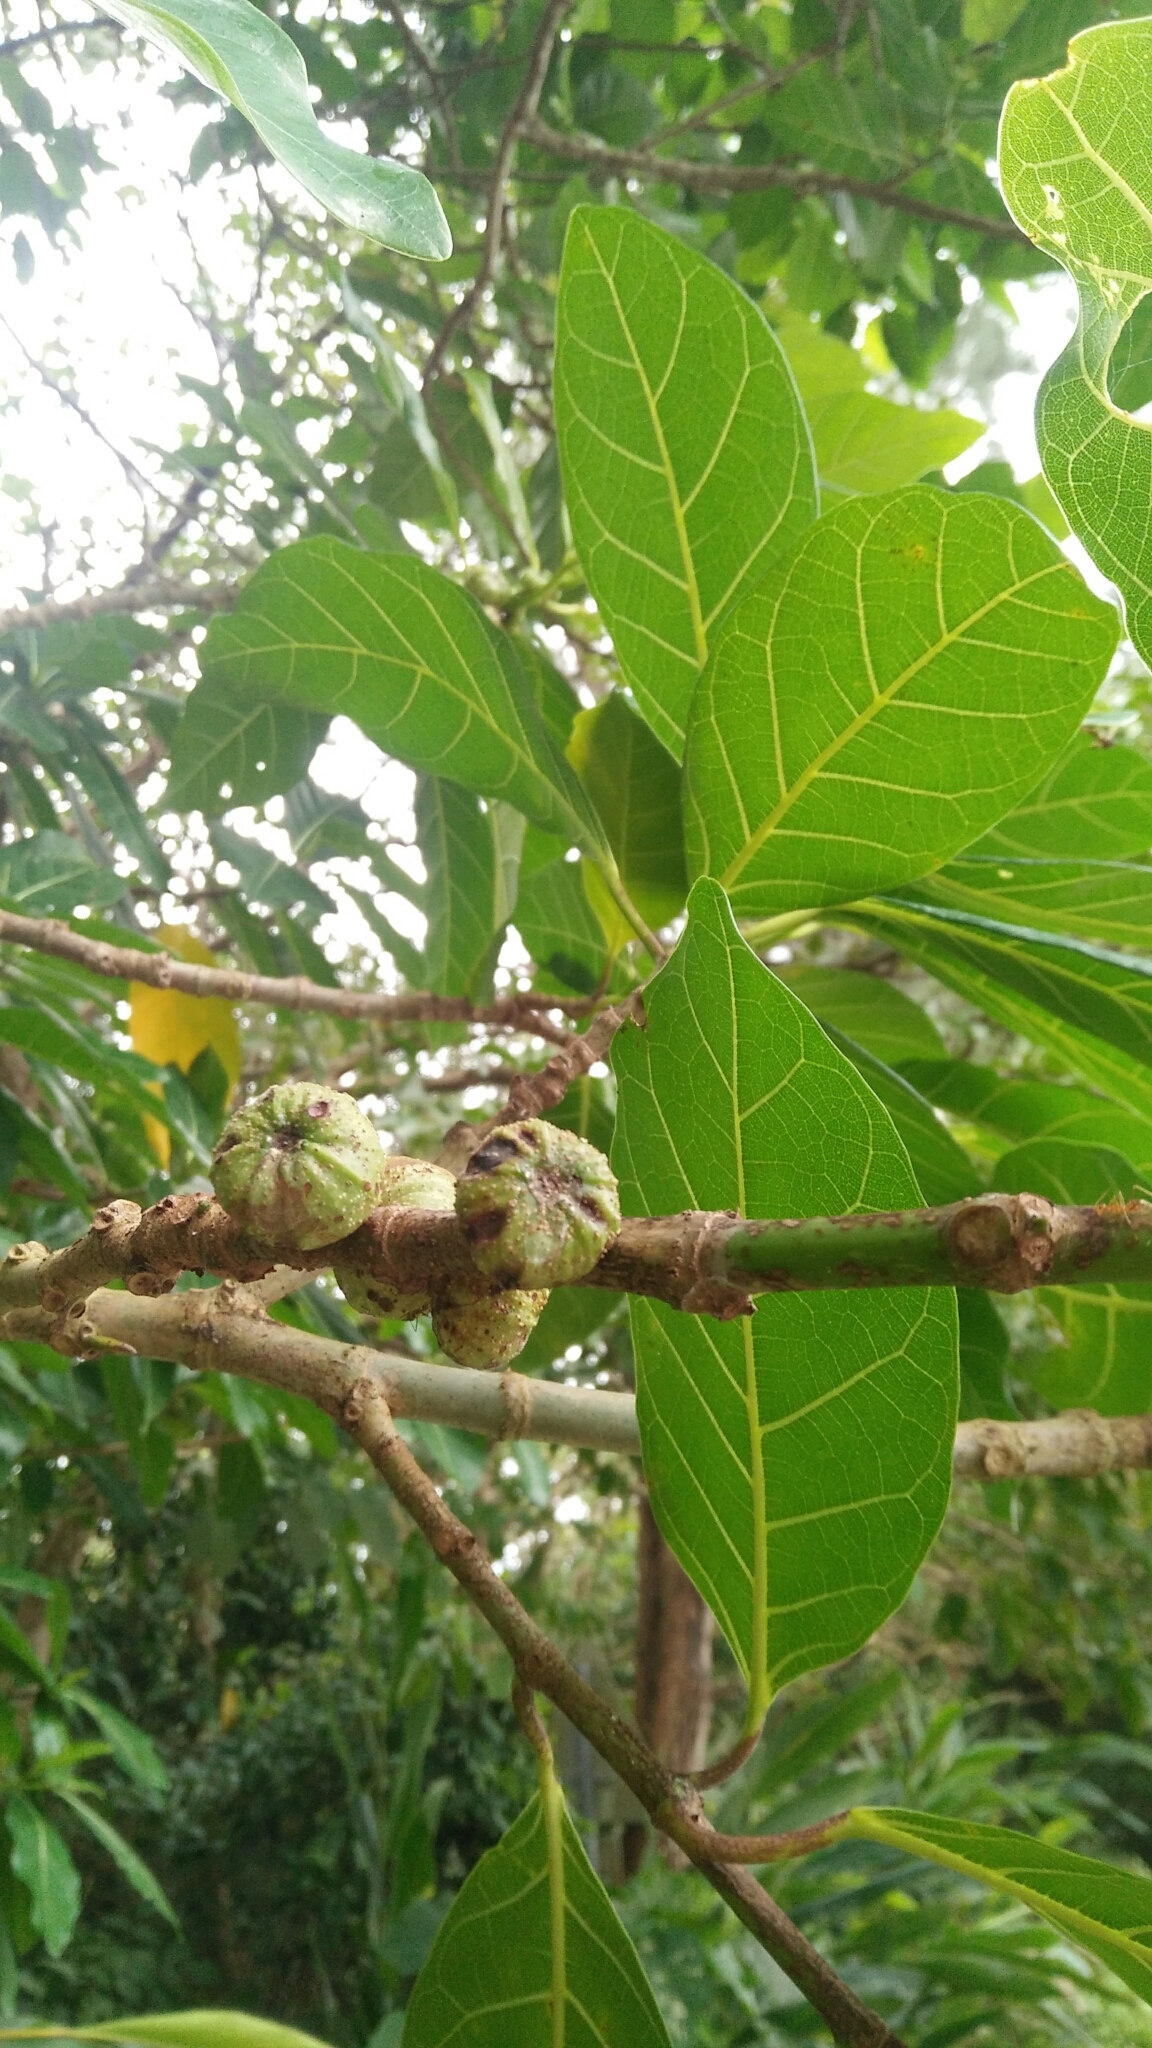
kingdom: Plantae
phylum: Tracheophyta
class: Magnoliopsida
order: Rosales
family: Moraceae
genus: Ficus
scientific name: Ficus septica
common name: Septic fig
